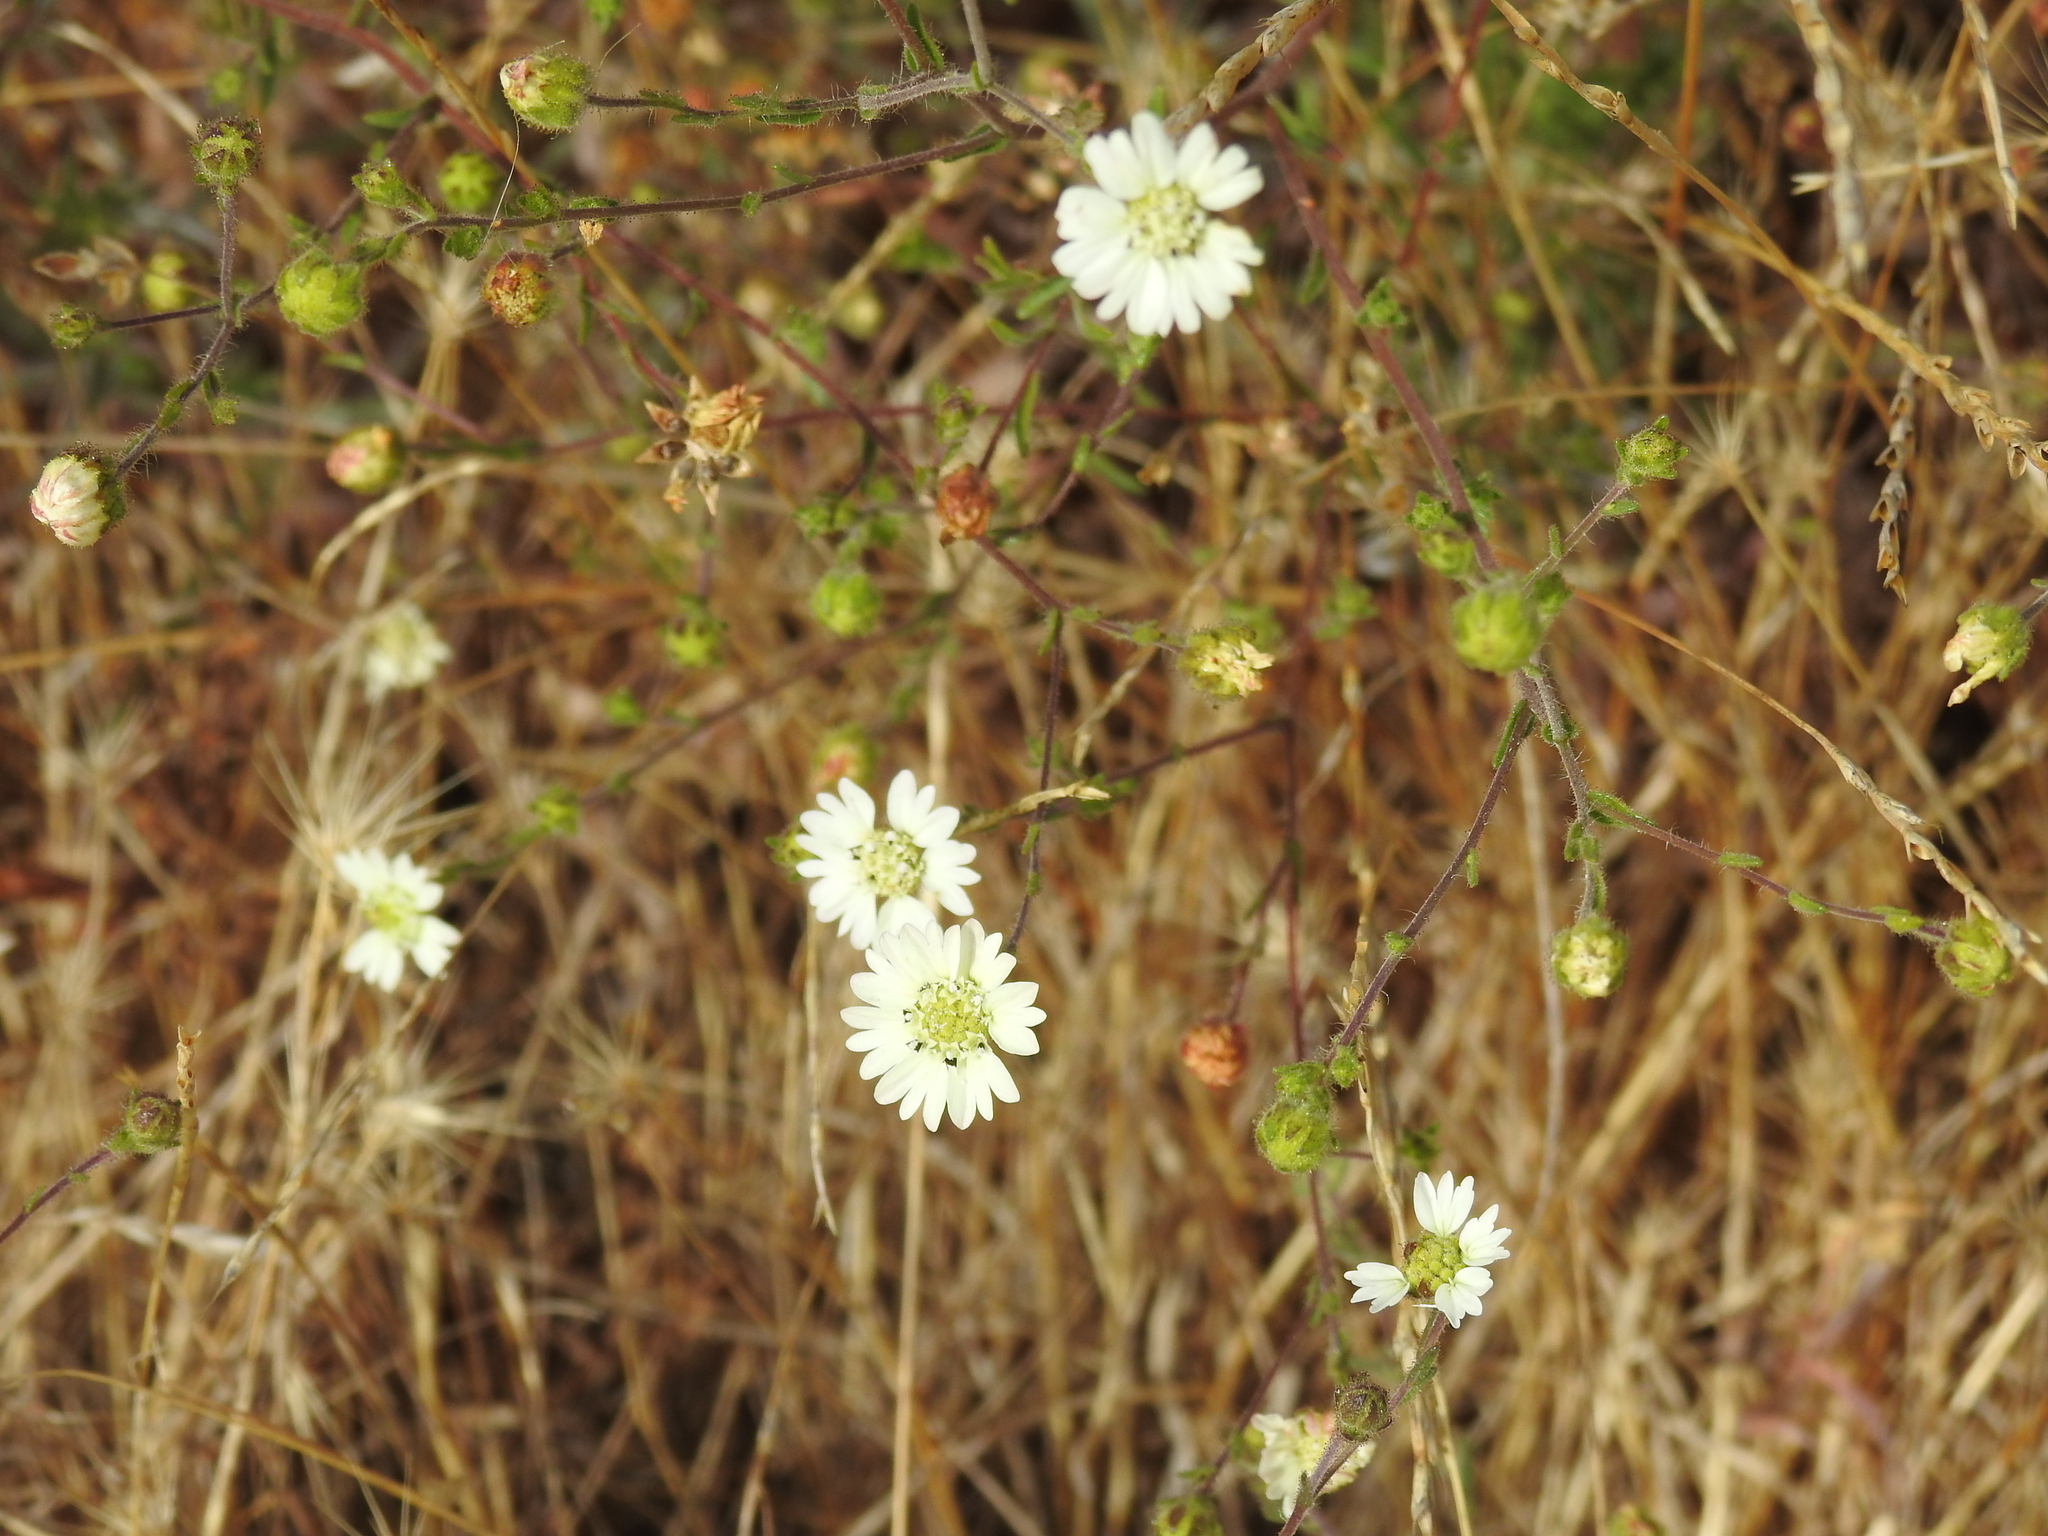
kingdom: Plantae
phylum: Tracheophyta
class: Magnoliopsida
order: Asterales
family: Asteraceae
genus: Hemizonia
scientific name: Hemizonia congesta
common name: Hayfield tarweed
